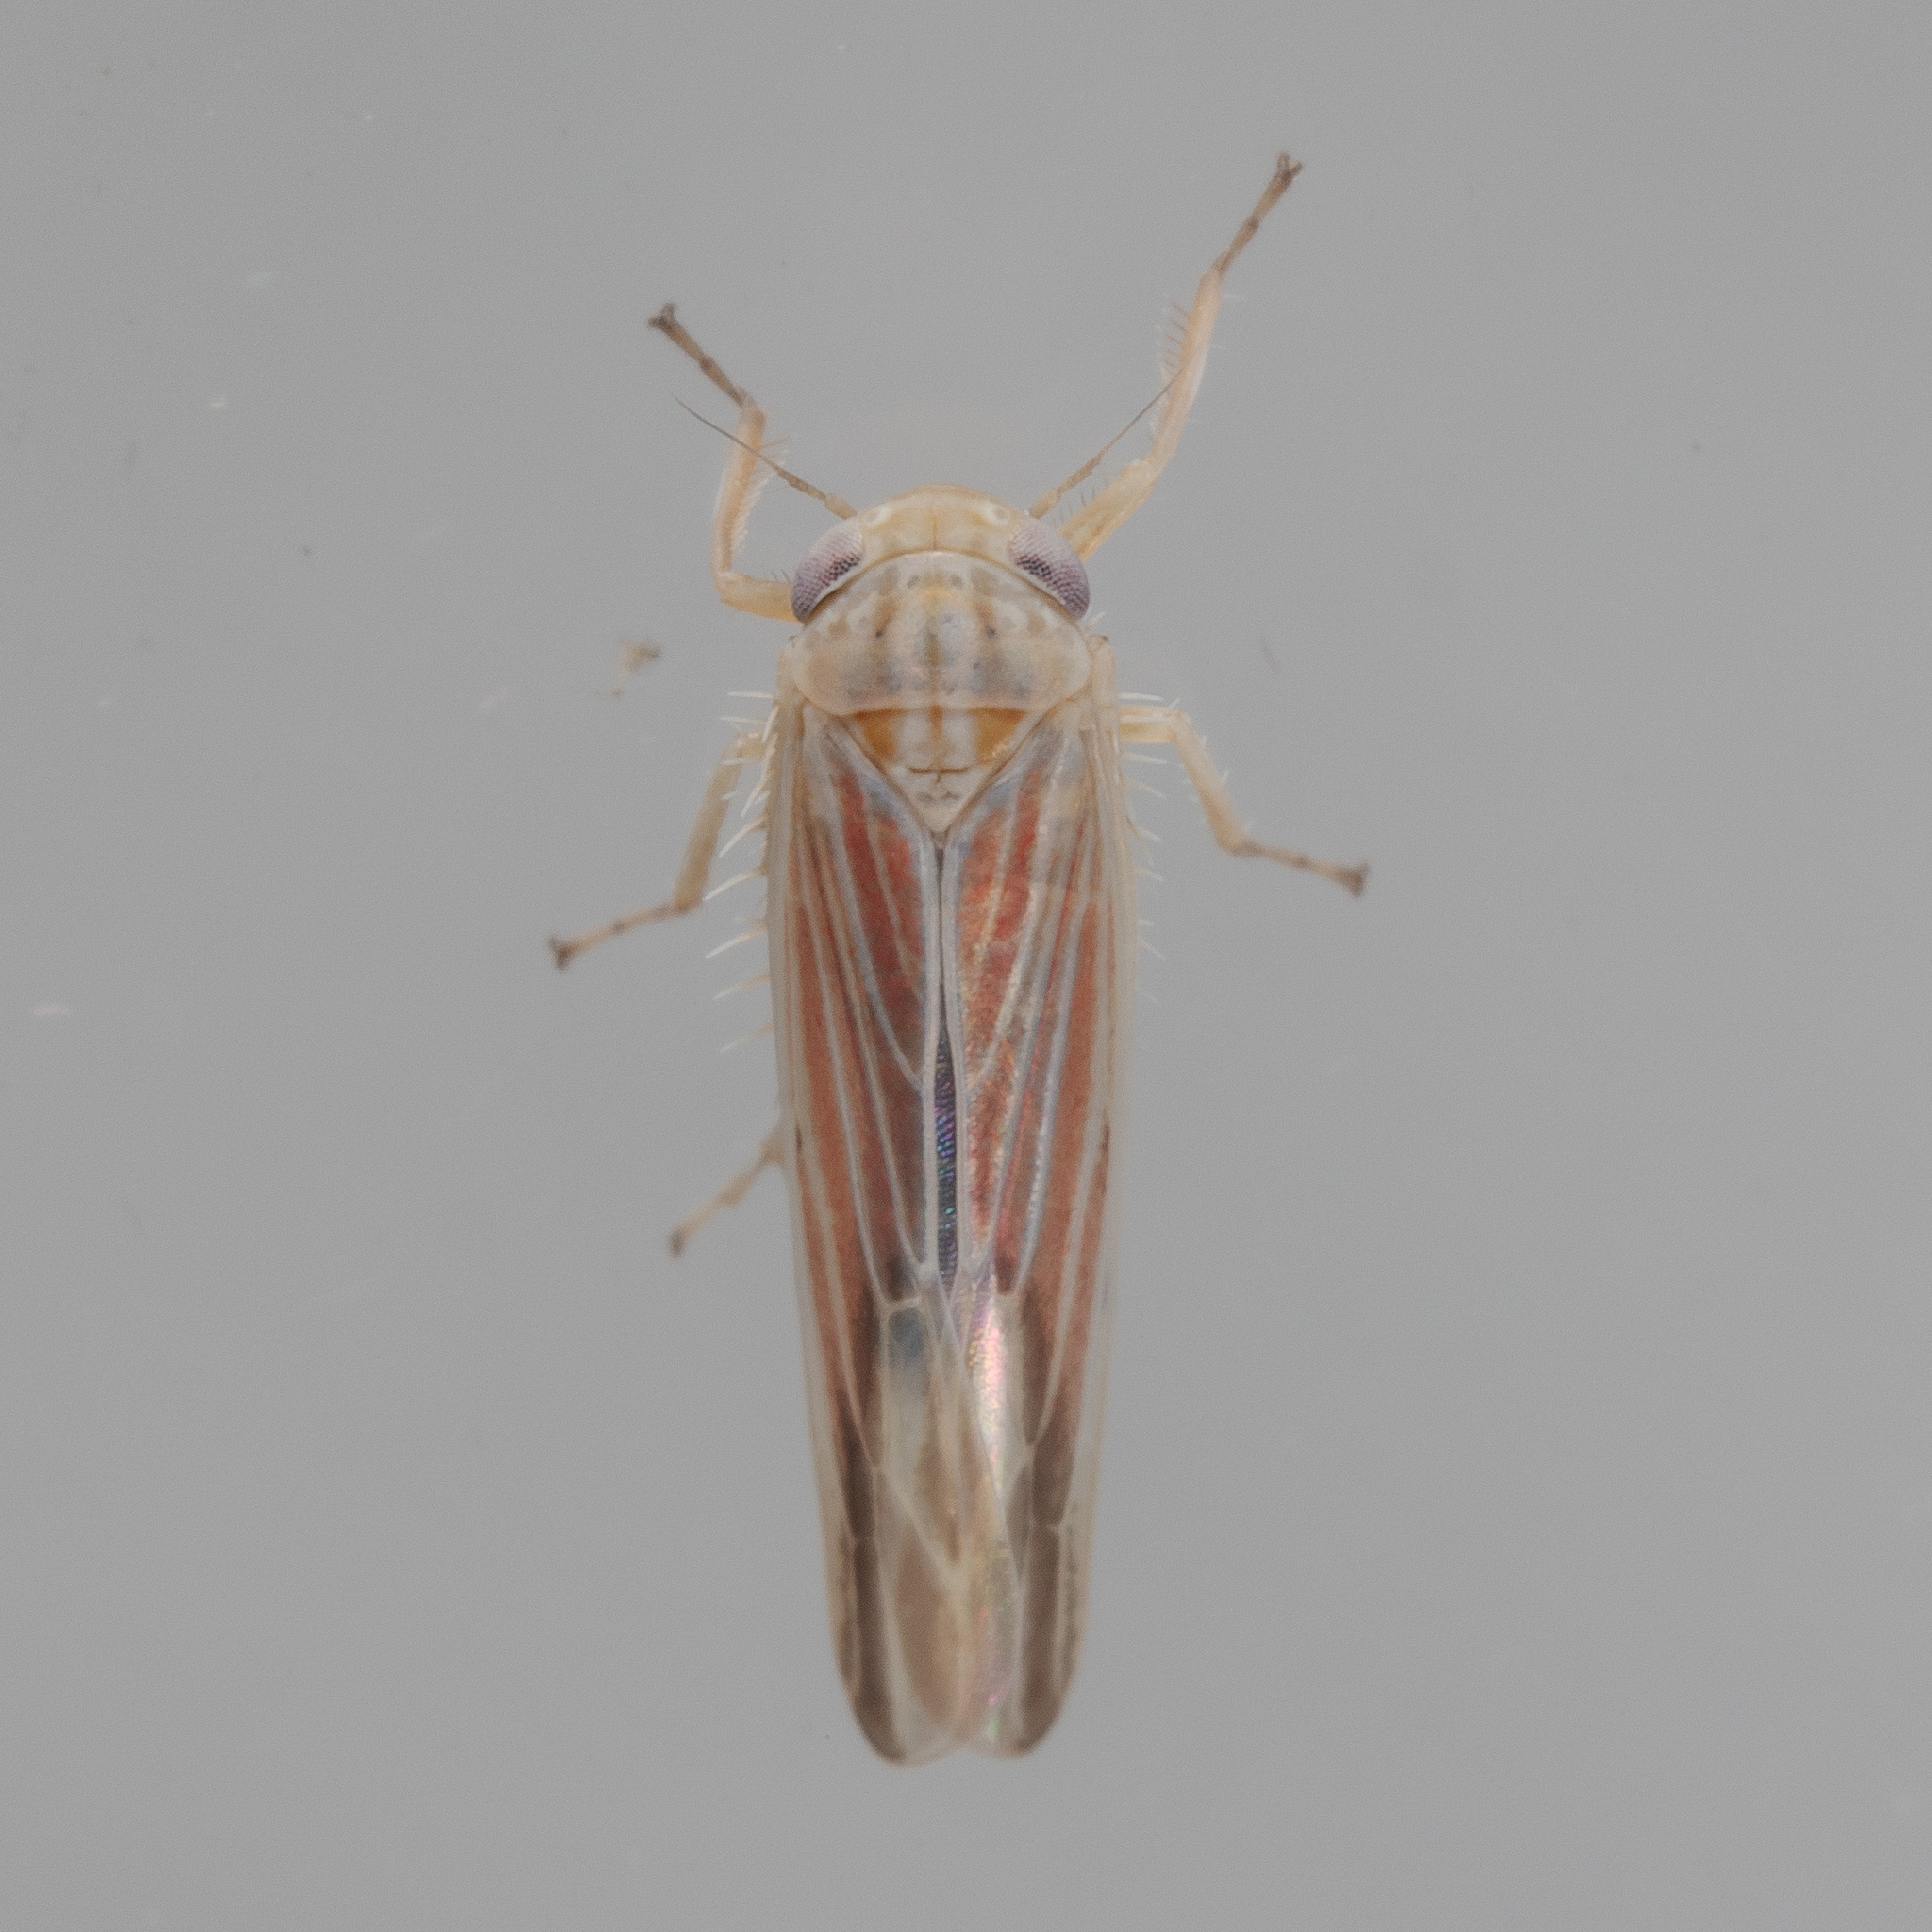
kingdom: Animalia
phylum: Arthropoda
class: Insecta
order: Hemiptera
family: Cicadellidae
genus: Balclutha
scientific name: Balclutha rubrostriata
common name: Red-streaked leafhopper
